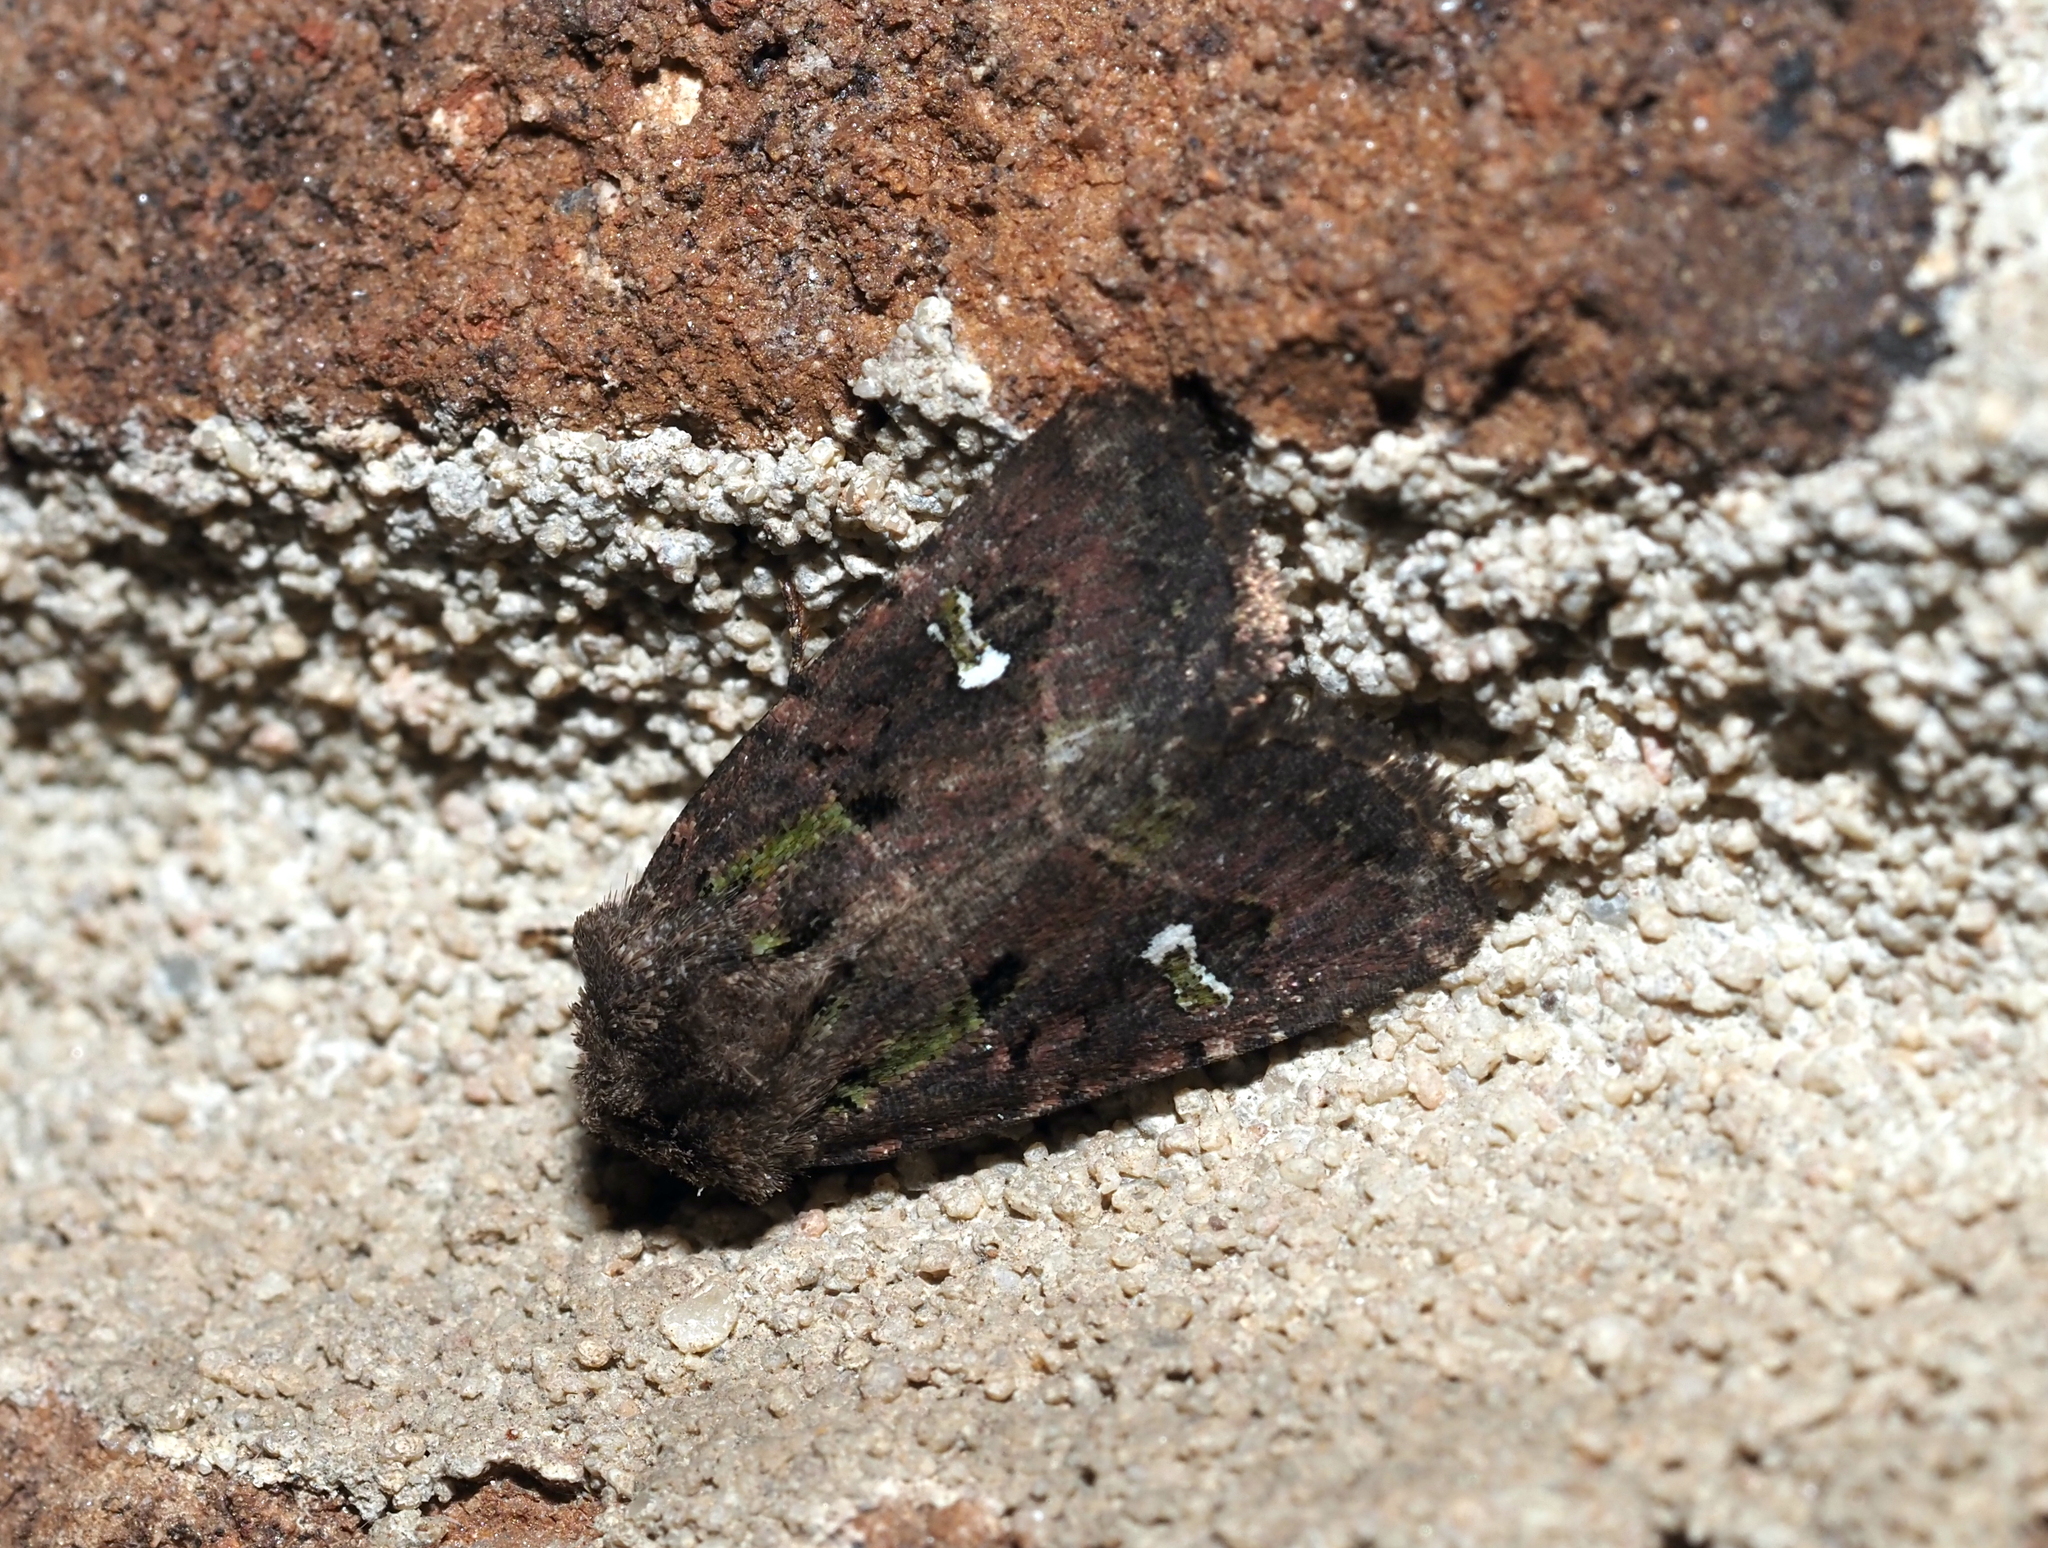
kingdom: Animalia
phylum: Arthropoda
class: Insecta
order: Lepidoptera
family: Noctuidae
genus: Lacinipolia
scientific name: Lacinipolia renigera
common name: Kidney-spotted minor
